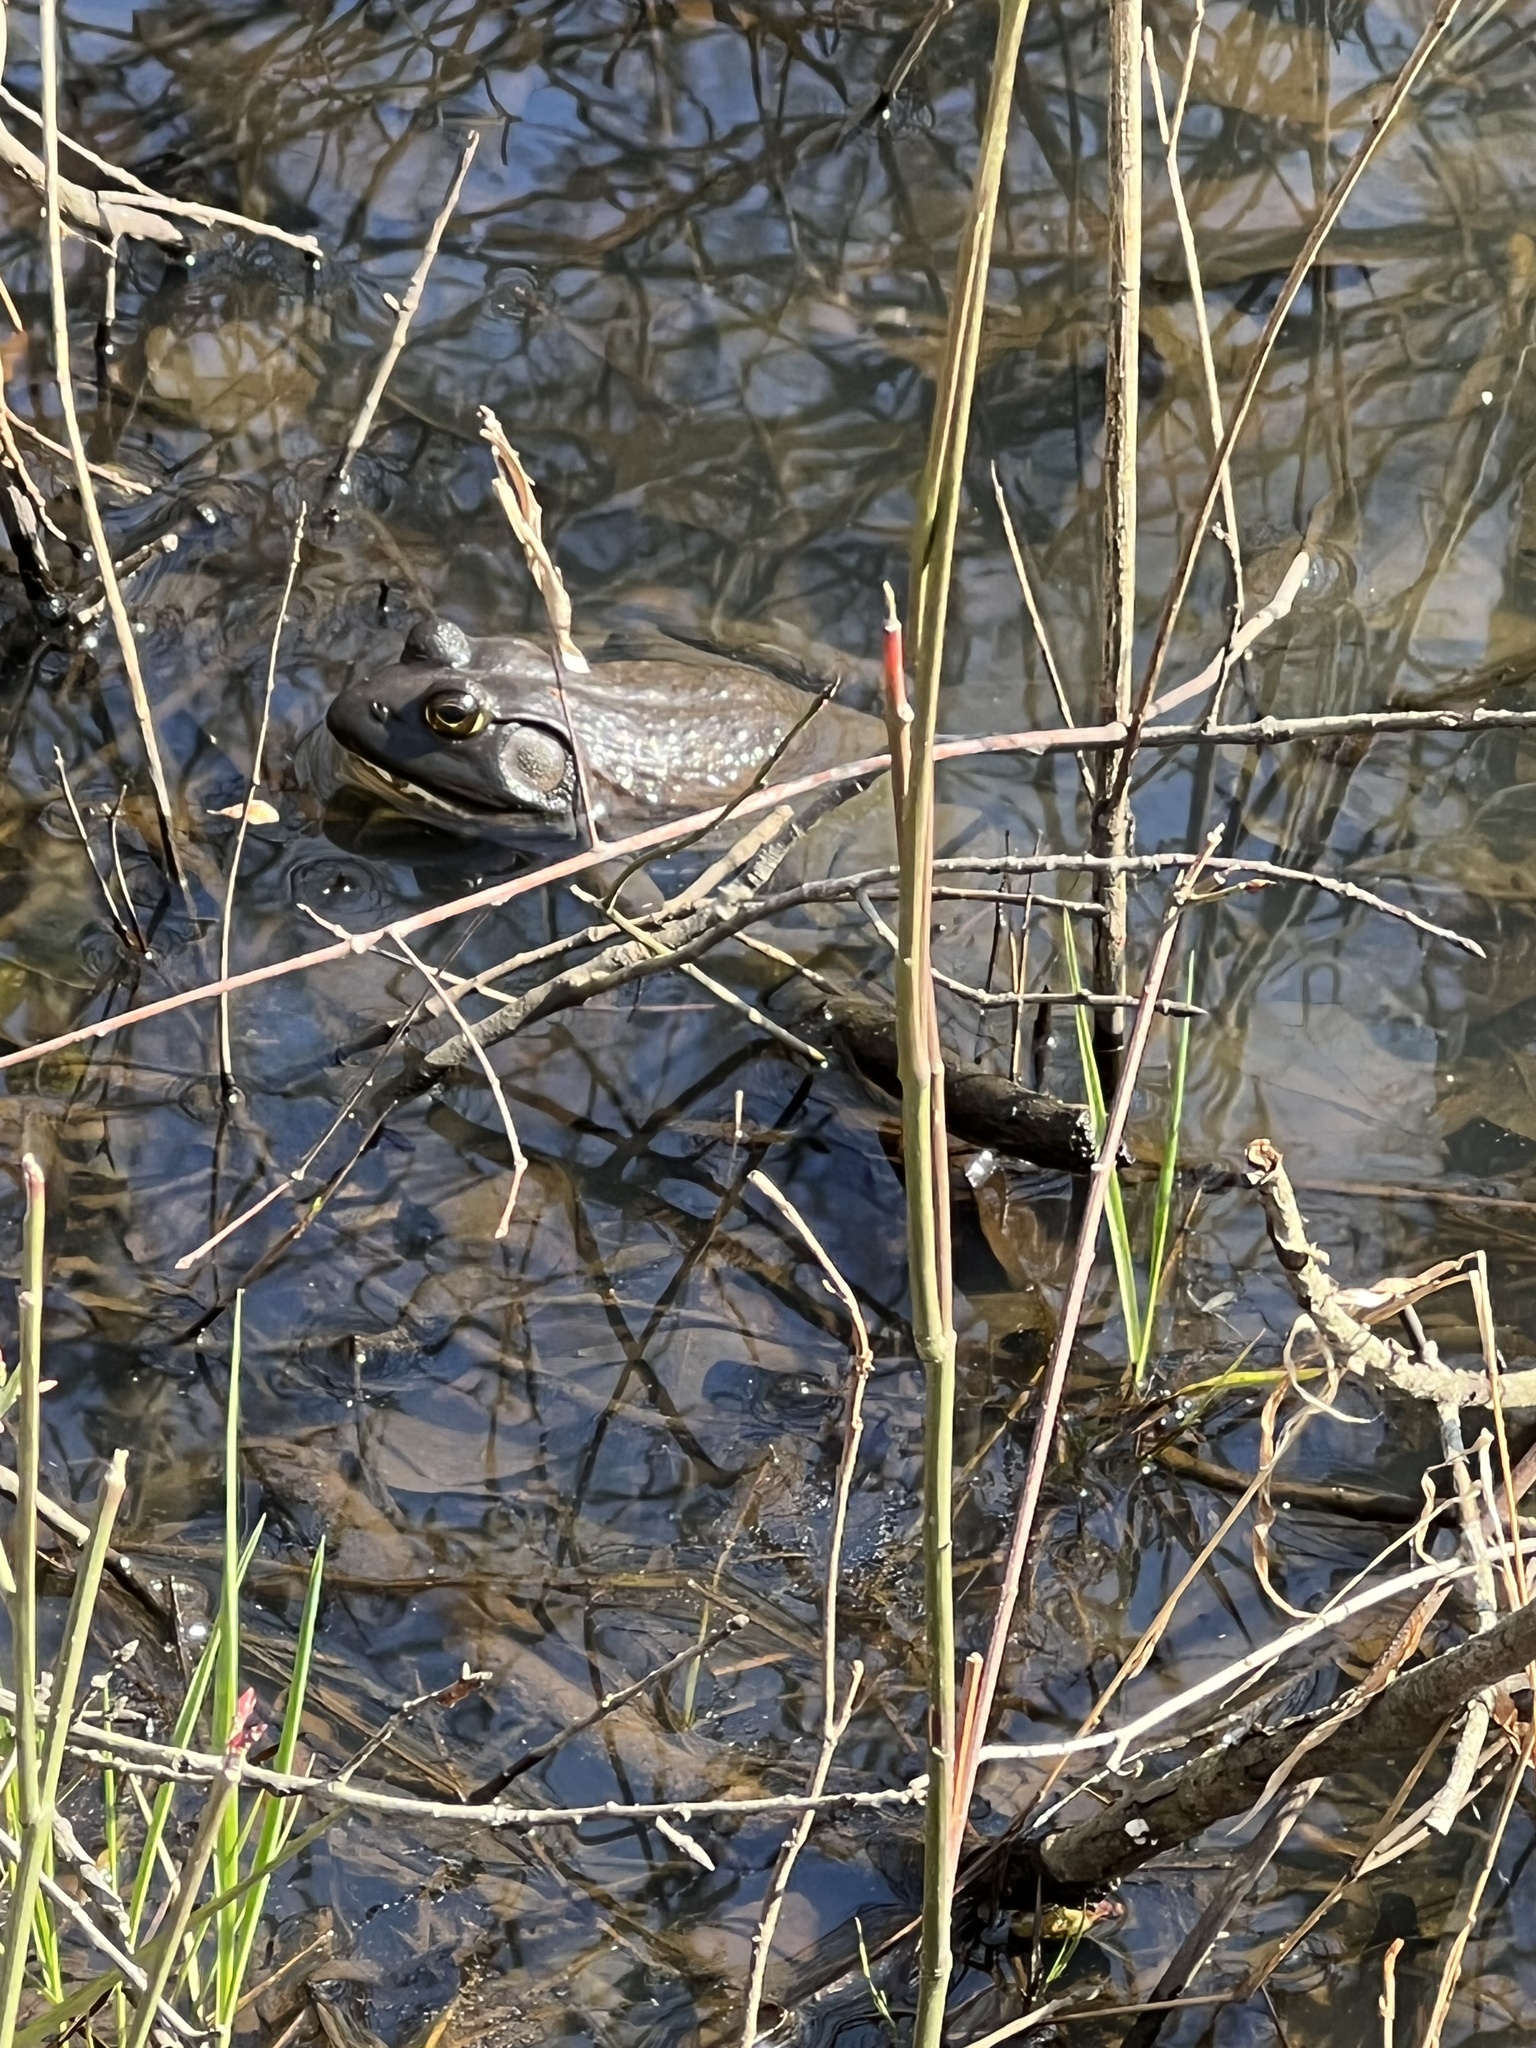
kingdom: Animalia
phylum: Chordata
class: Amphibia
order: Anura
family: Ranidae
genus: Lithobates
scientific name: Lithobates catesbeianus
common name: American bullfrog
